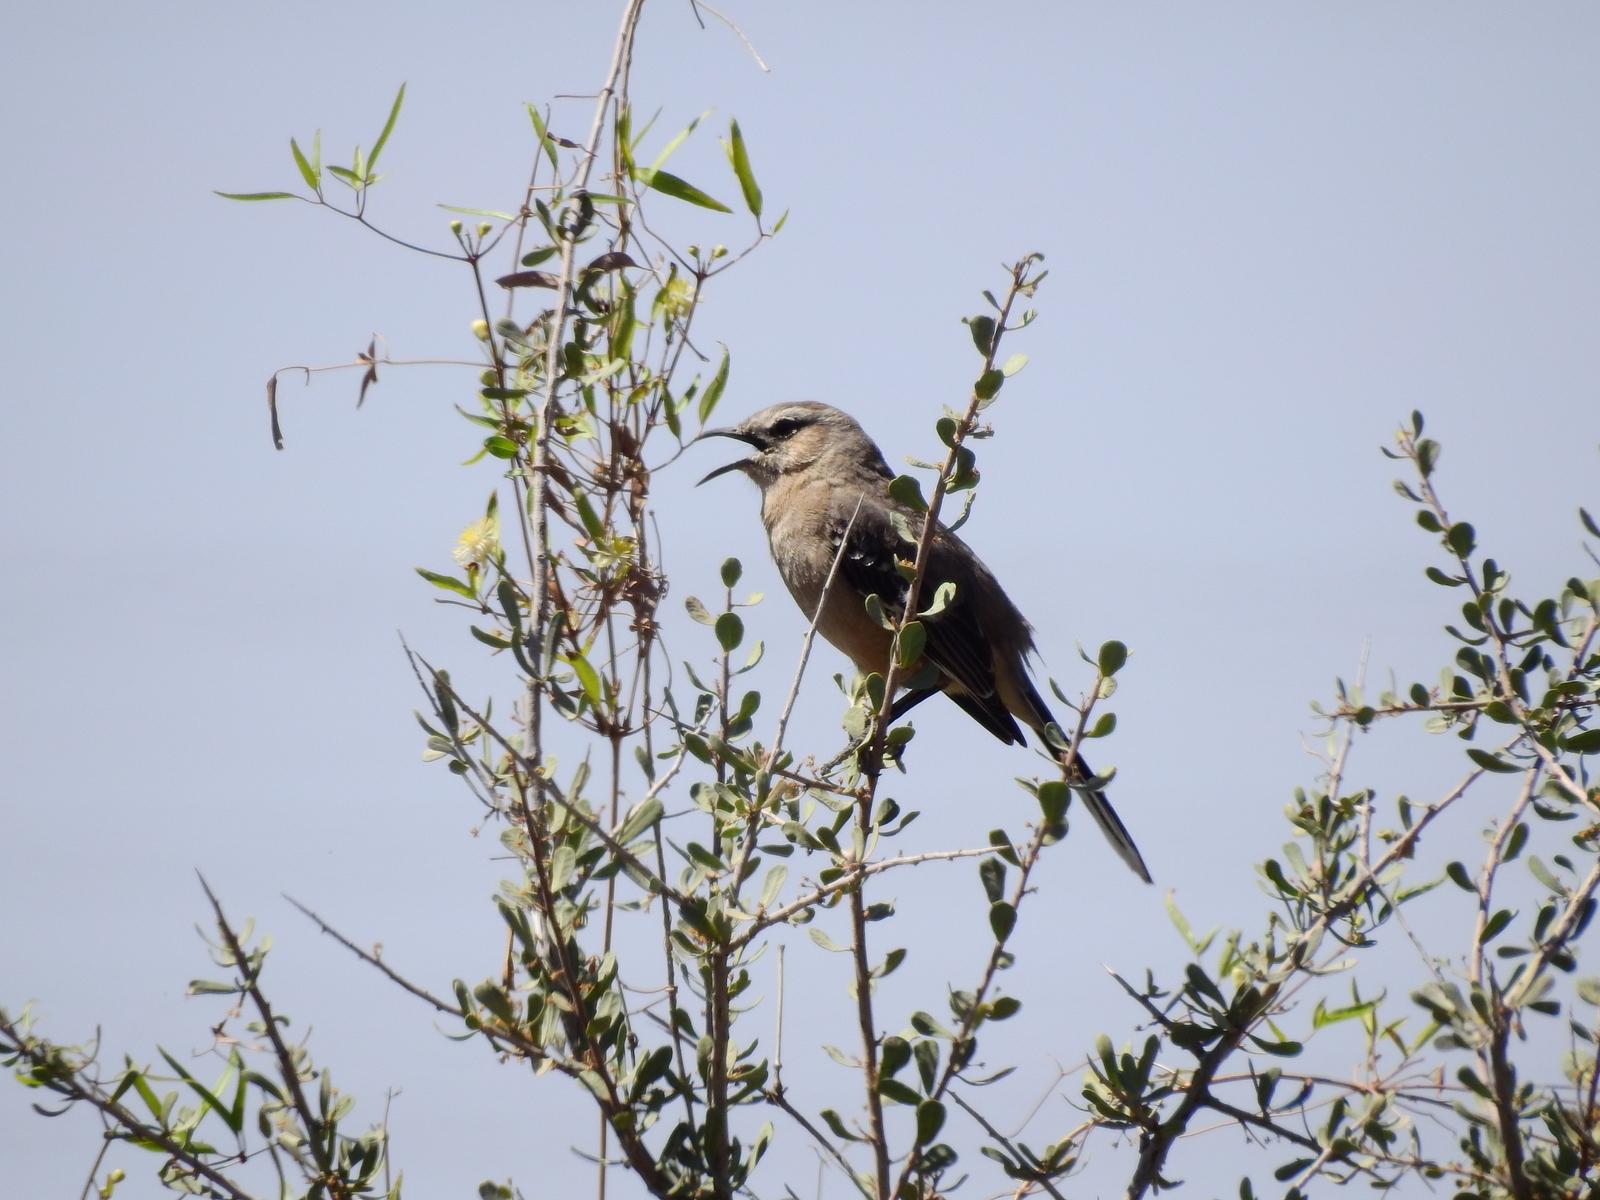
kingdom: Animalia
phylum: Chordata
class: Aves
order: Passeriformes
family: Mimidae
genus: Mimus
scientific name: Mimus patagonicus
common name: Patagonian mockingbird
